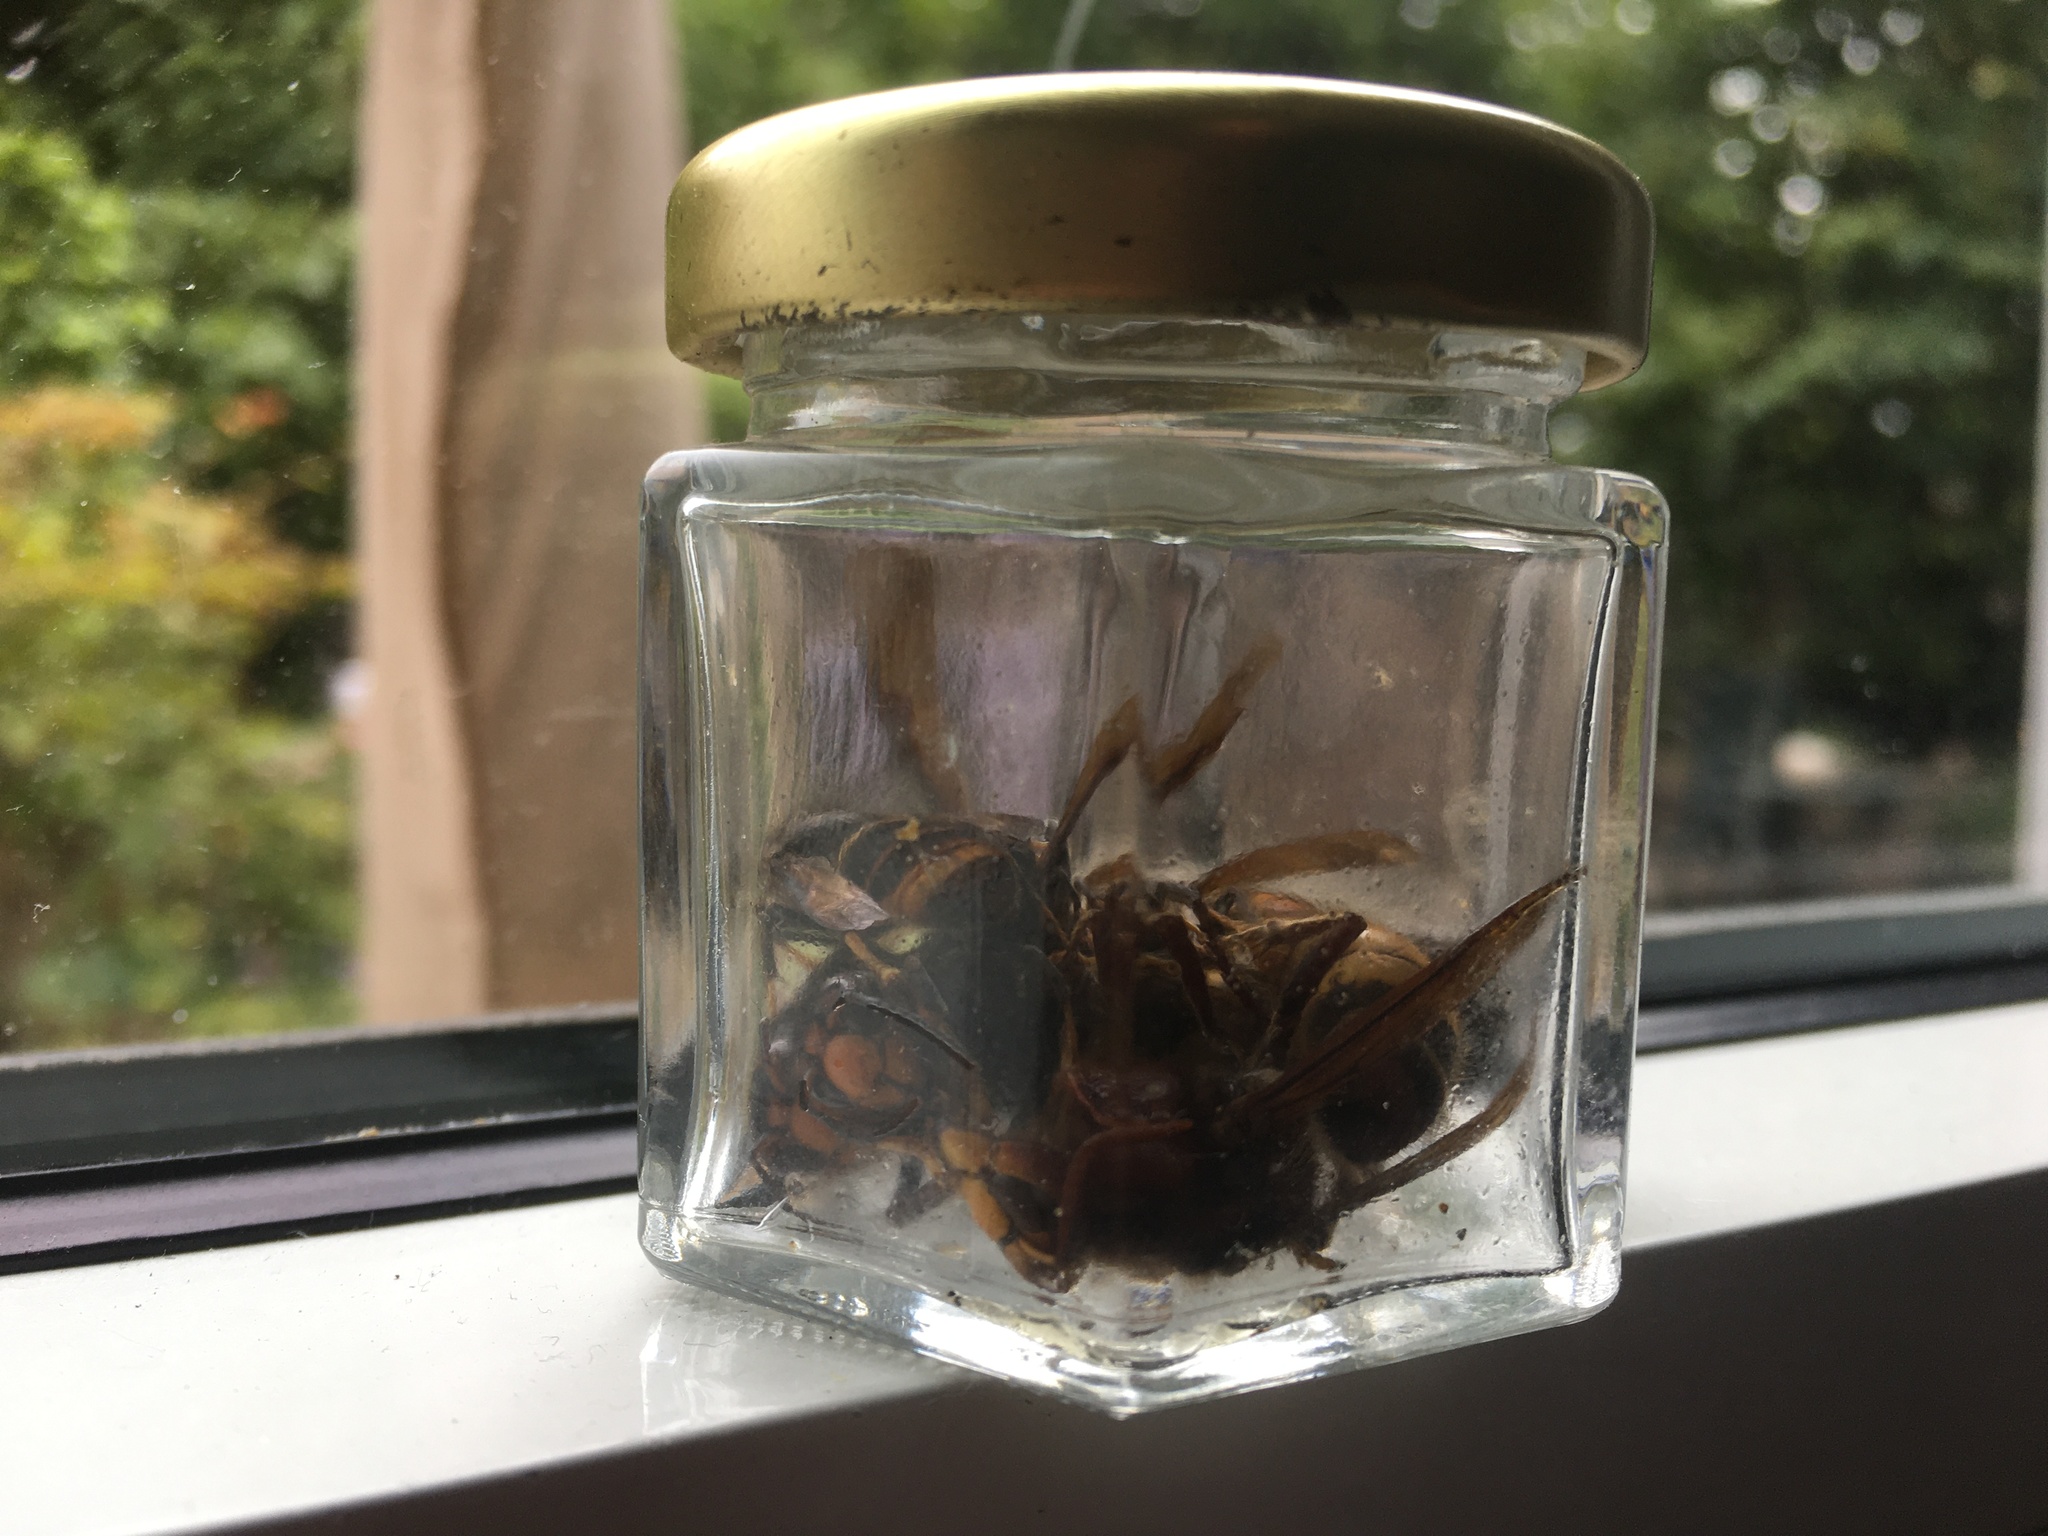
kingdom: Animalia
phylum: Arthropoda
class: Insecta
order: Hymenoptera
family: Vespidae
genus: Vespa
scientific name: Vespa velutina
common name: Asian hornet
